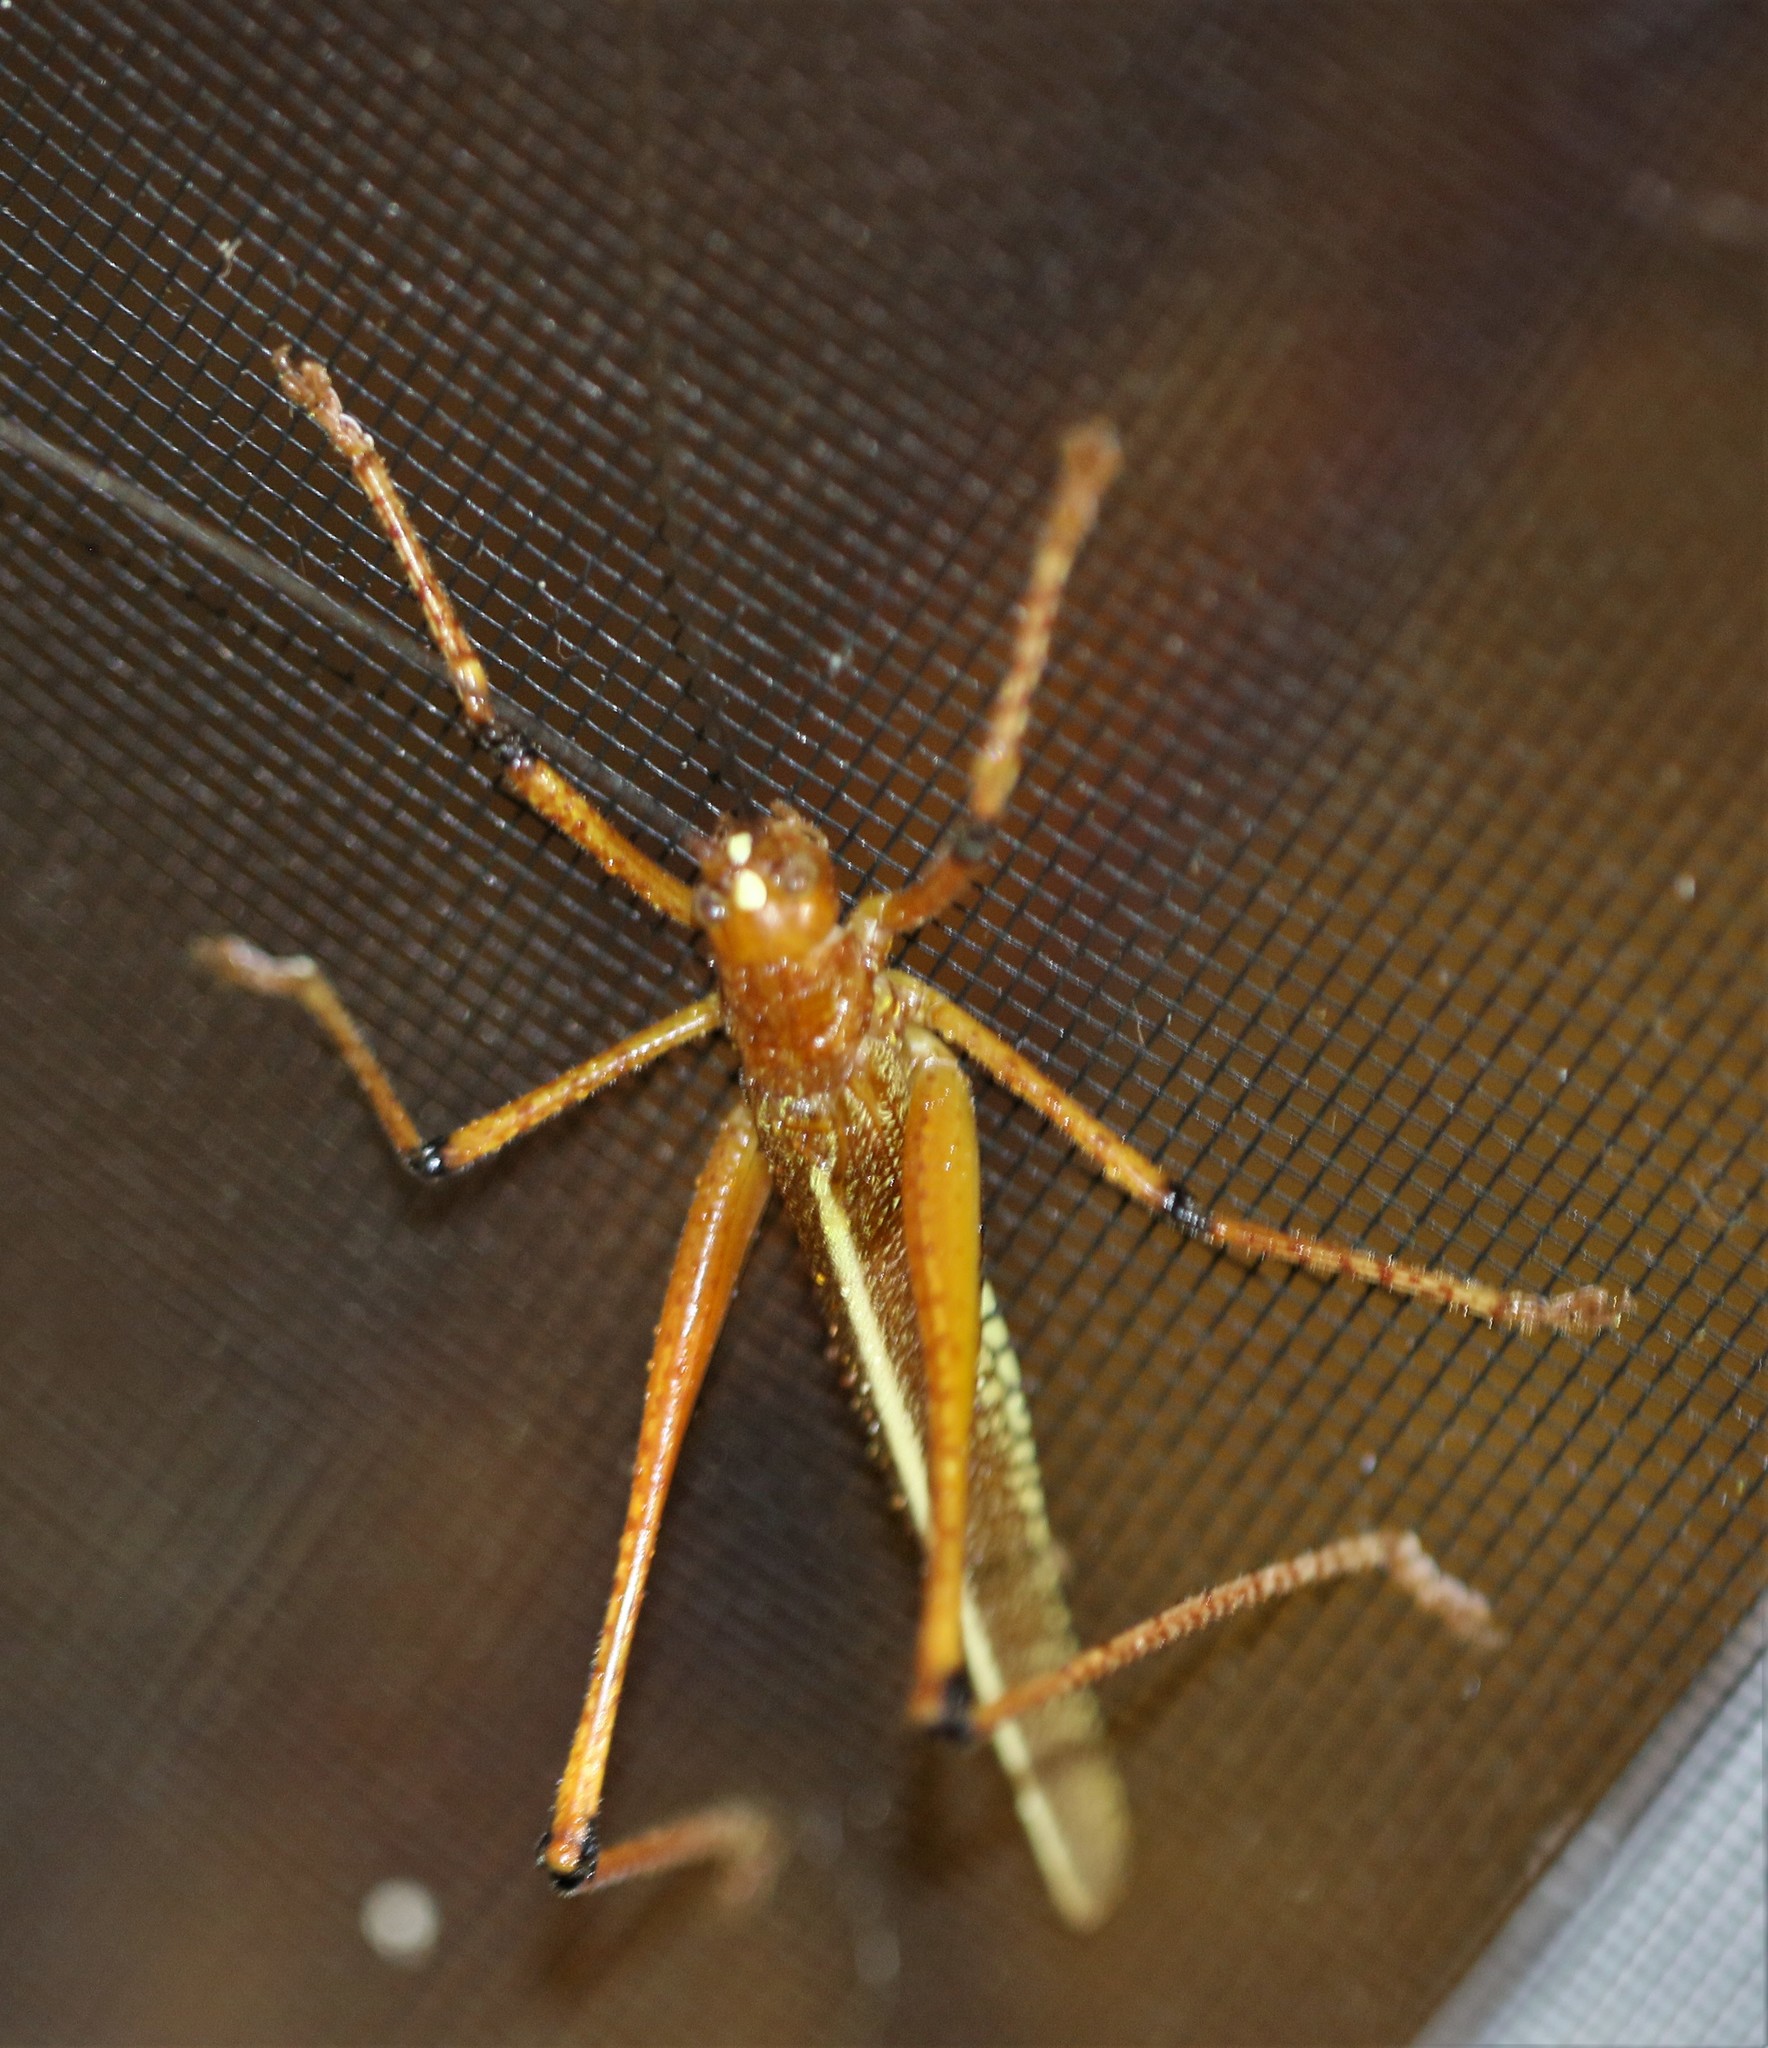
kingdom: Animalia
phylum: Arthropoda
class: Insecta
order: Orthoptera
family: Tettigoniidae
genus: Ischnomela
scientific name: Ischnomela gracilis
